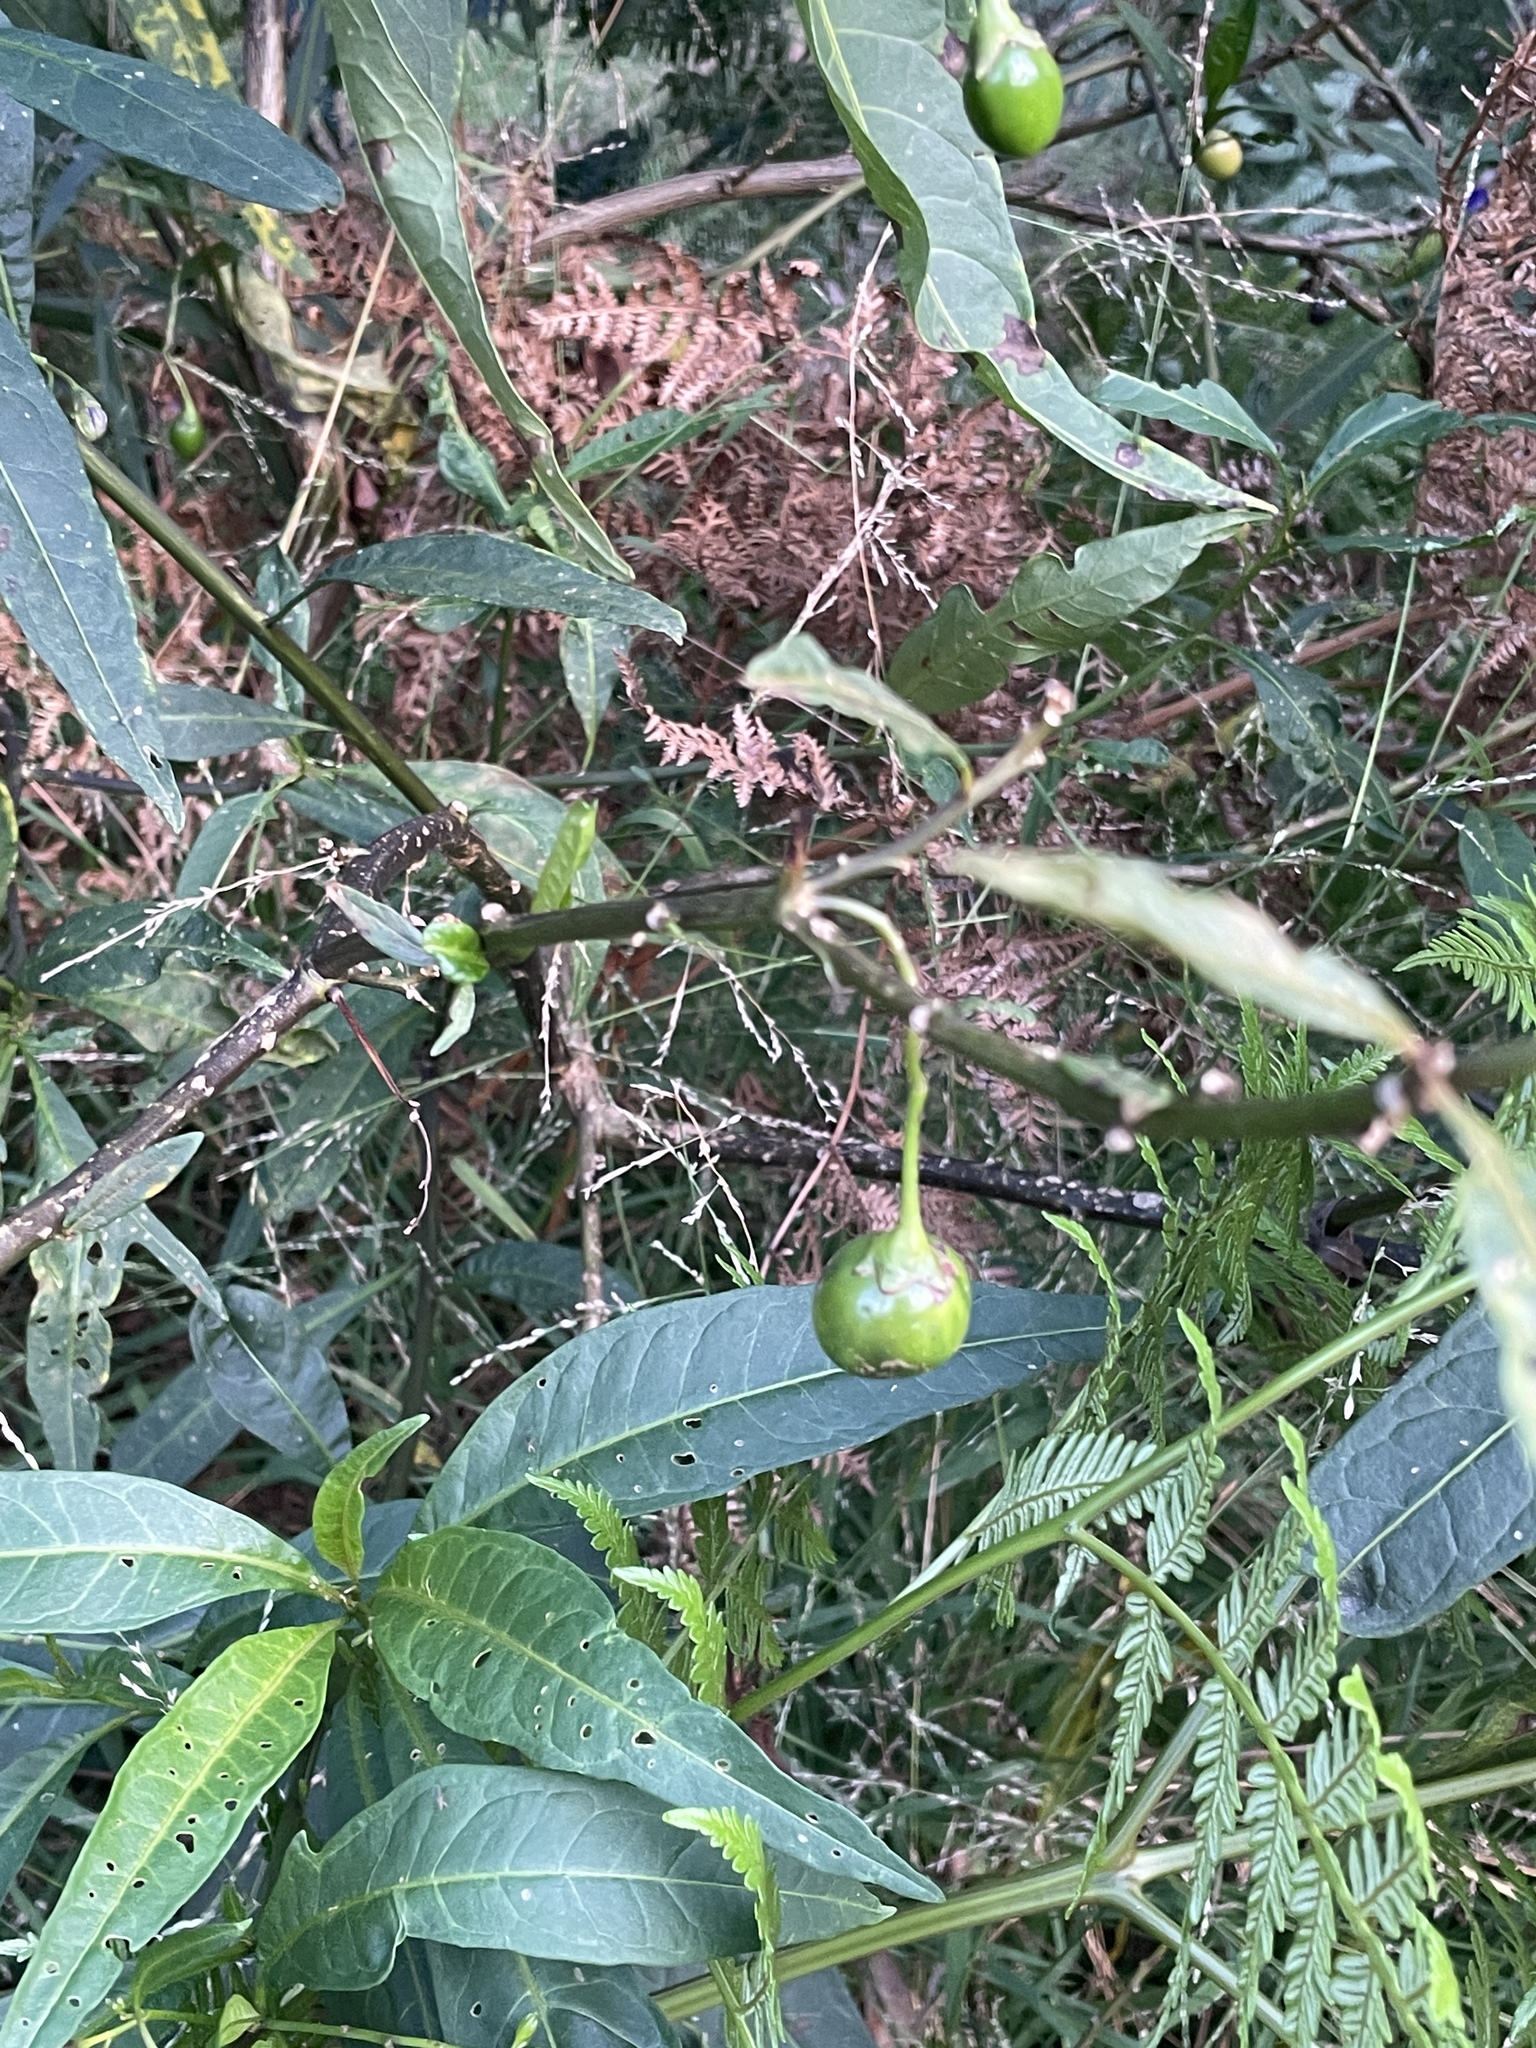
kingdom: Plantae
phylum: Tracheophyta
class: Magnoliopsida
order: Solanales
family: Solanaceae
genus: Solanum
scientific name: Solanum laciniatum
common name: Kangaroo-apple
